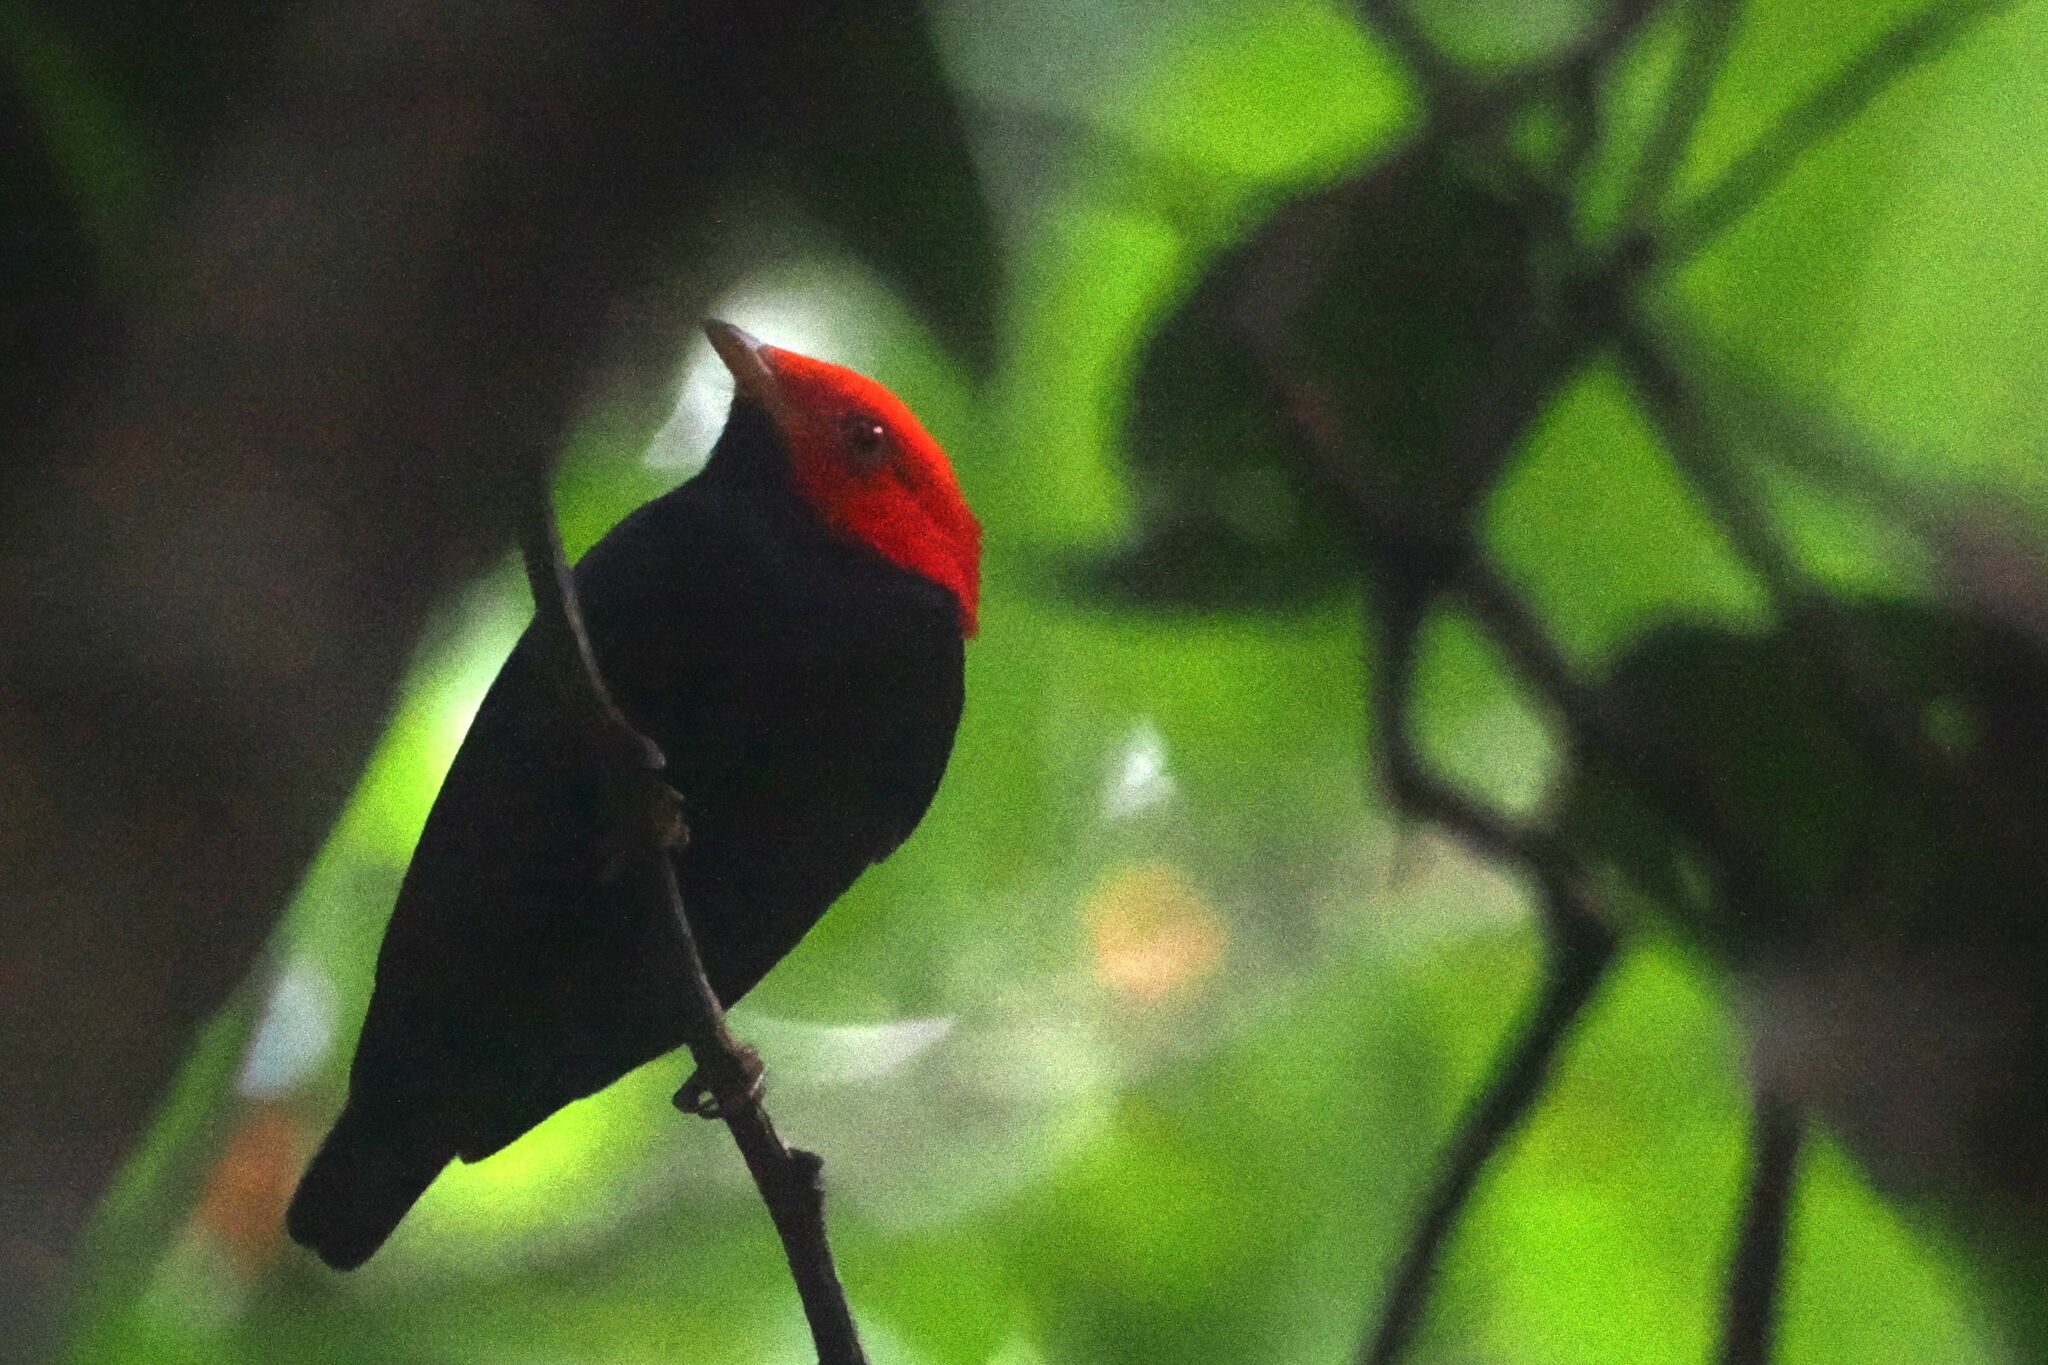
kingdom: Animalia
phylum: Chordata
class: Aves
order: Passeriformes
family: Pipridae
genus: Pipra
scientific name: Pipra rubrocapilla
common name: Red-headed manakin
